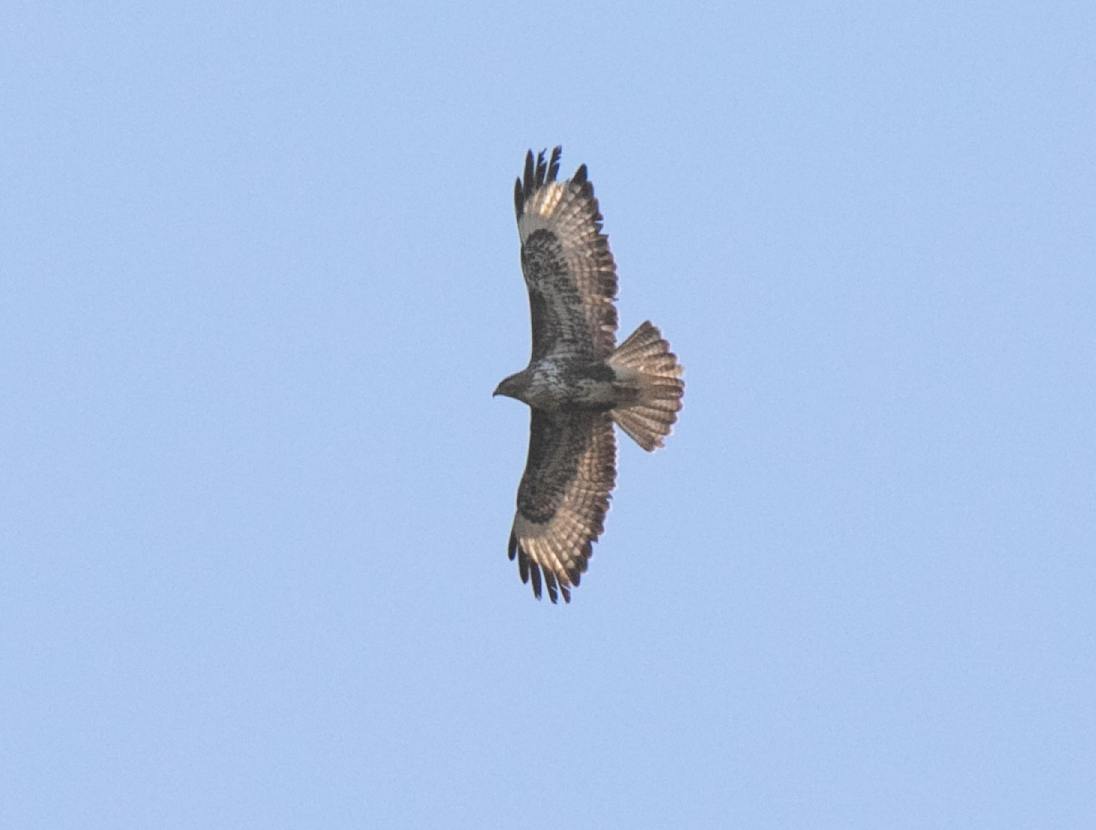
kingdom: Animalia
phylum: Chordata
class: Aves
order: Accipitriformes
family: Accipitridae
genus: Buteo
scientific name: Buteo buteo
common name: Common buzzard
